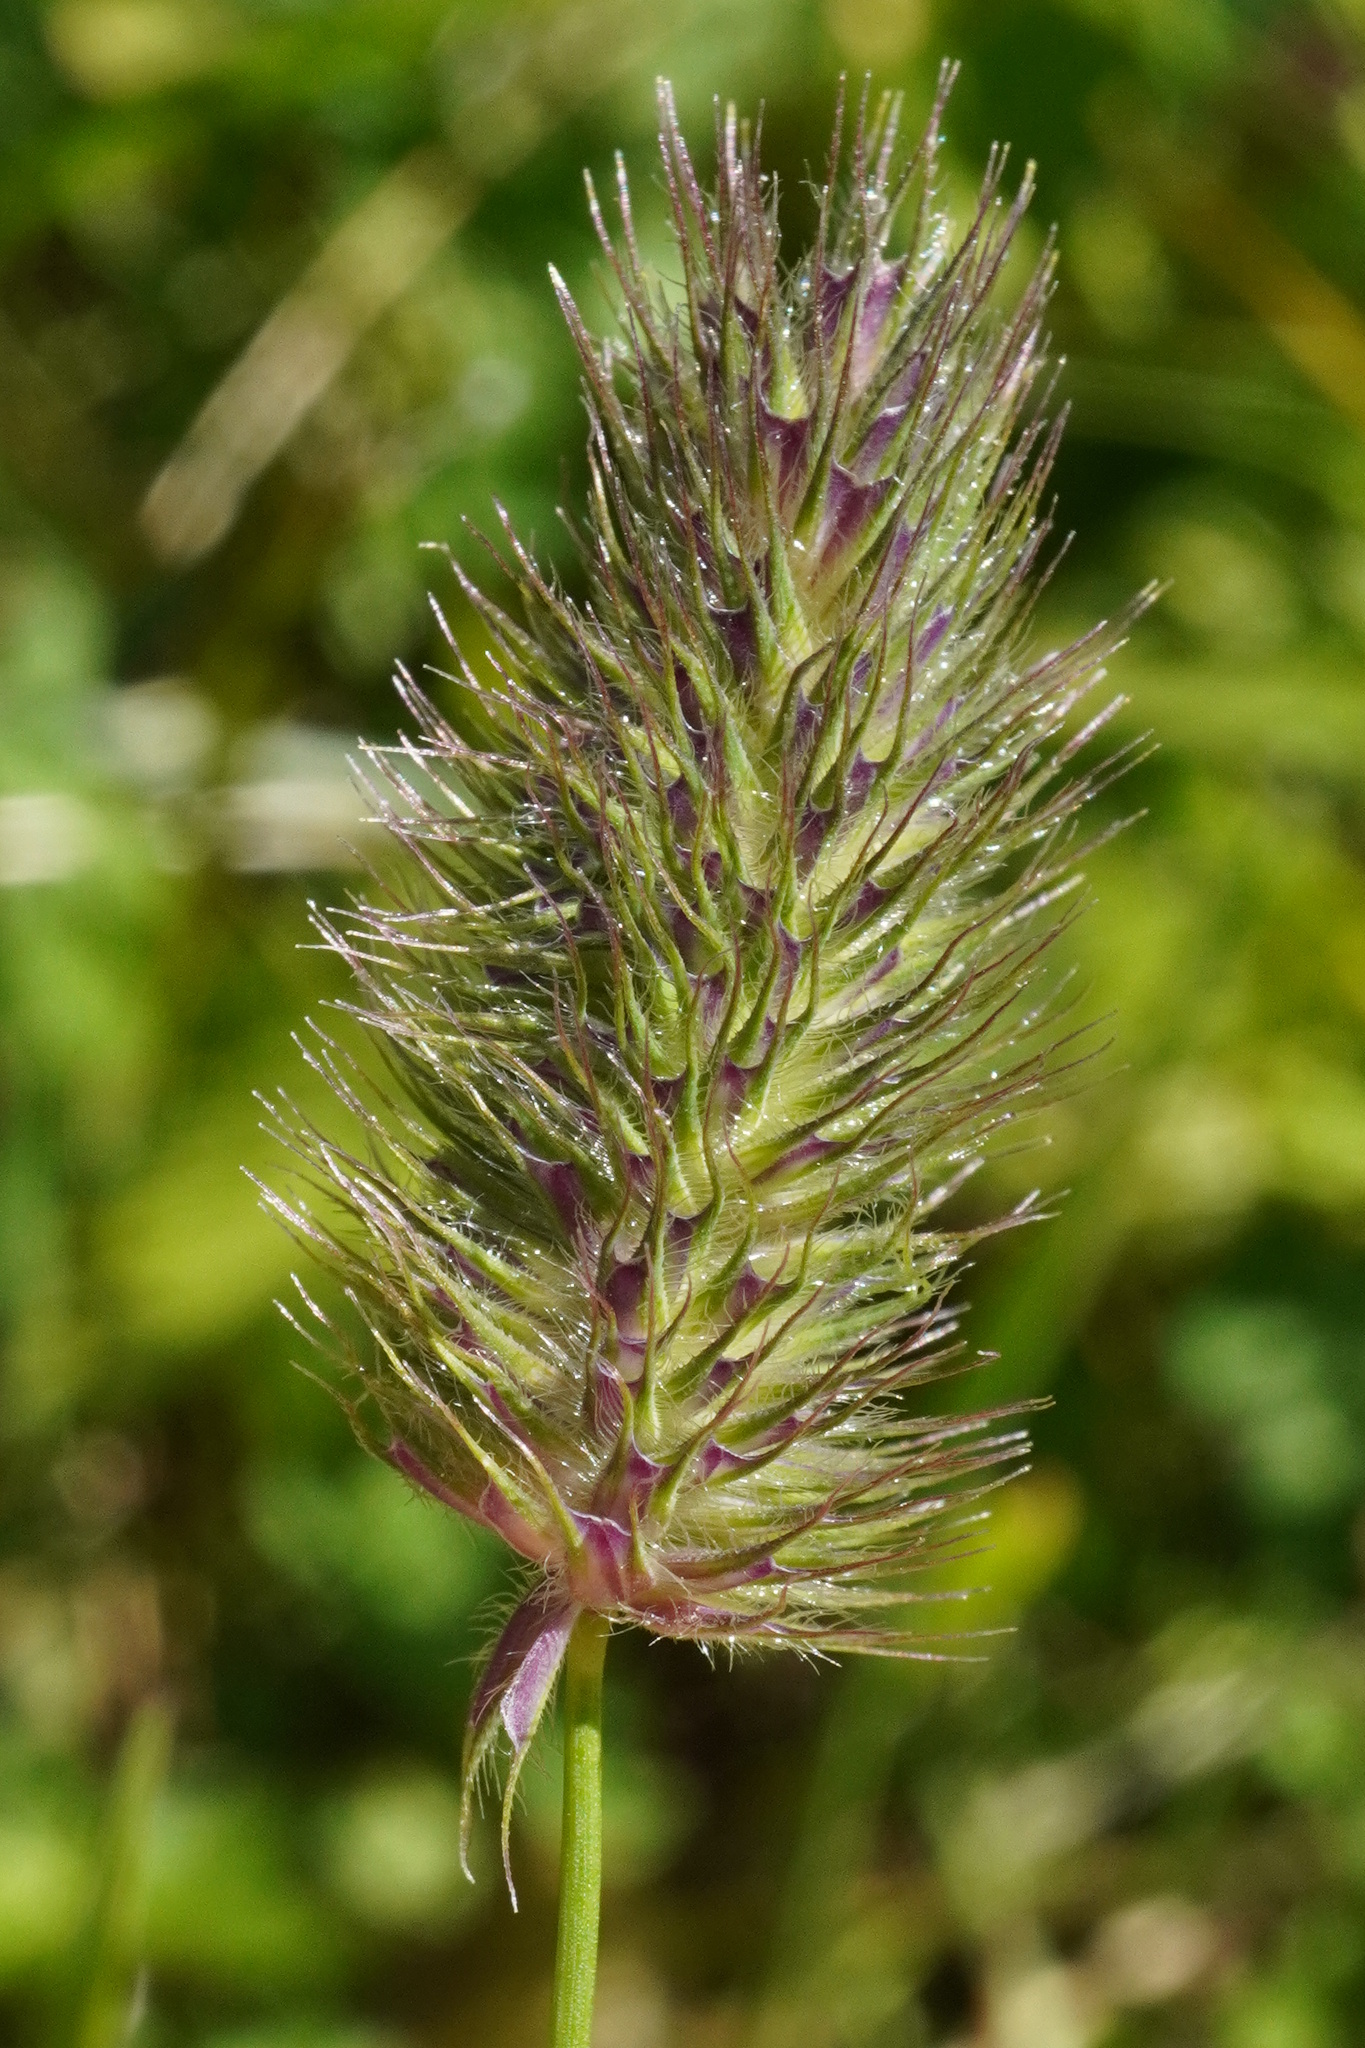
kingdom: Plantae
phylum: Tracheophyta
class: Liliopsida
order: Poales
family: Poaceae
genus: Phleum
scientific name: Phleum alpinum
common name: Alpine cat's-tail
